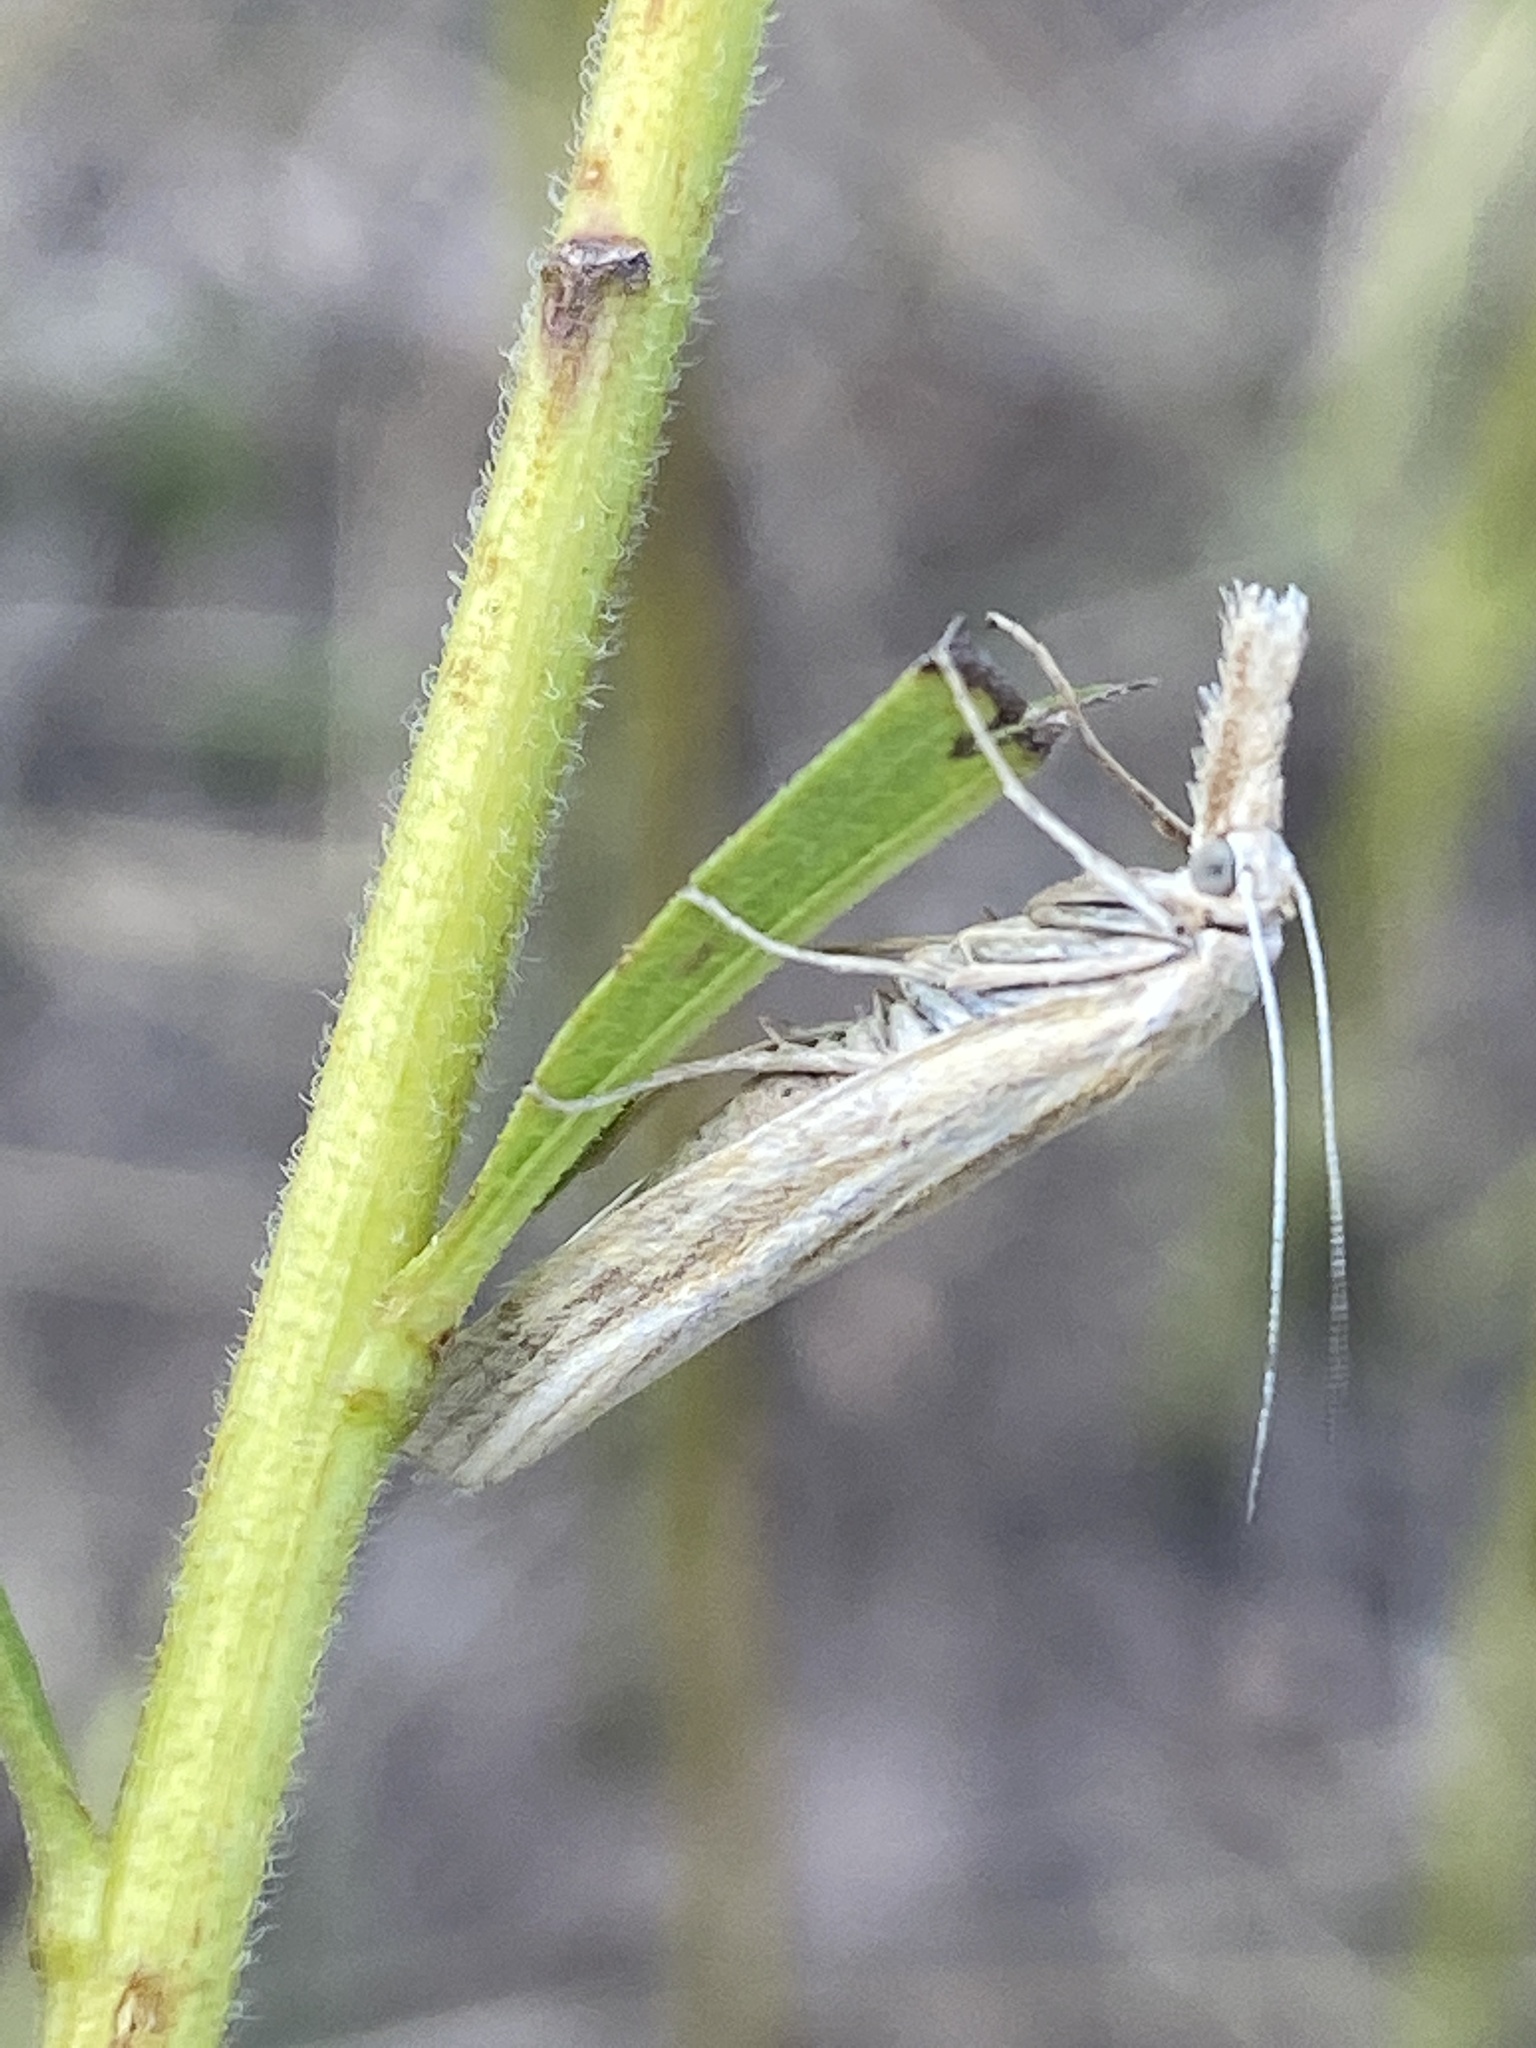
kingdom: Animalia
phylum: Arthropoda
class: Insecta
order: Lepidoptera
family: Crambidae
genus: Agriphila
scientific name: Agriphila tristellus
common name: Common grass-veneer
